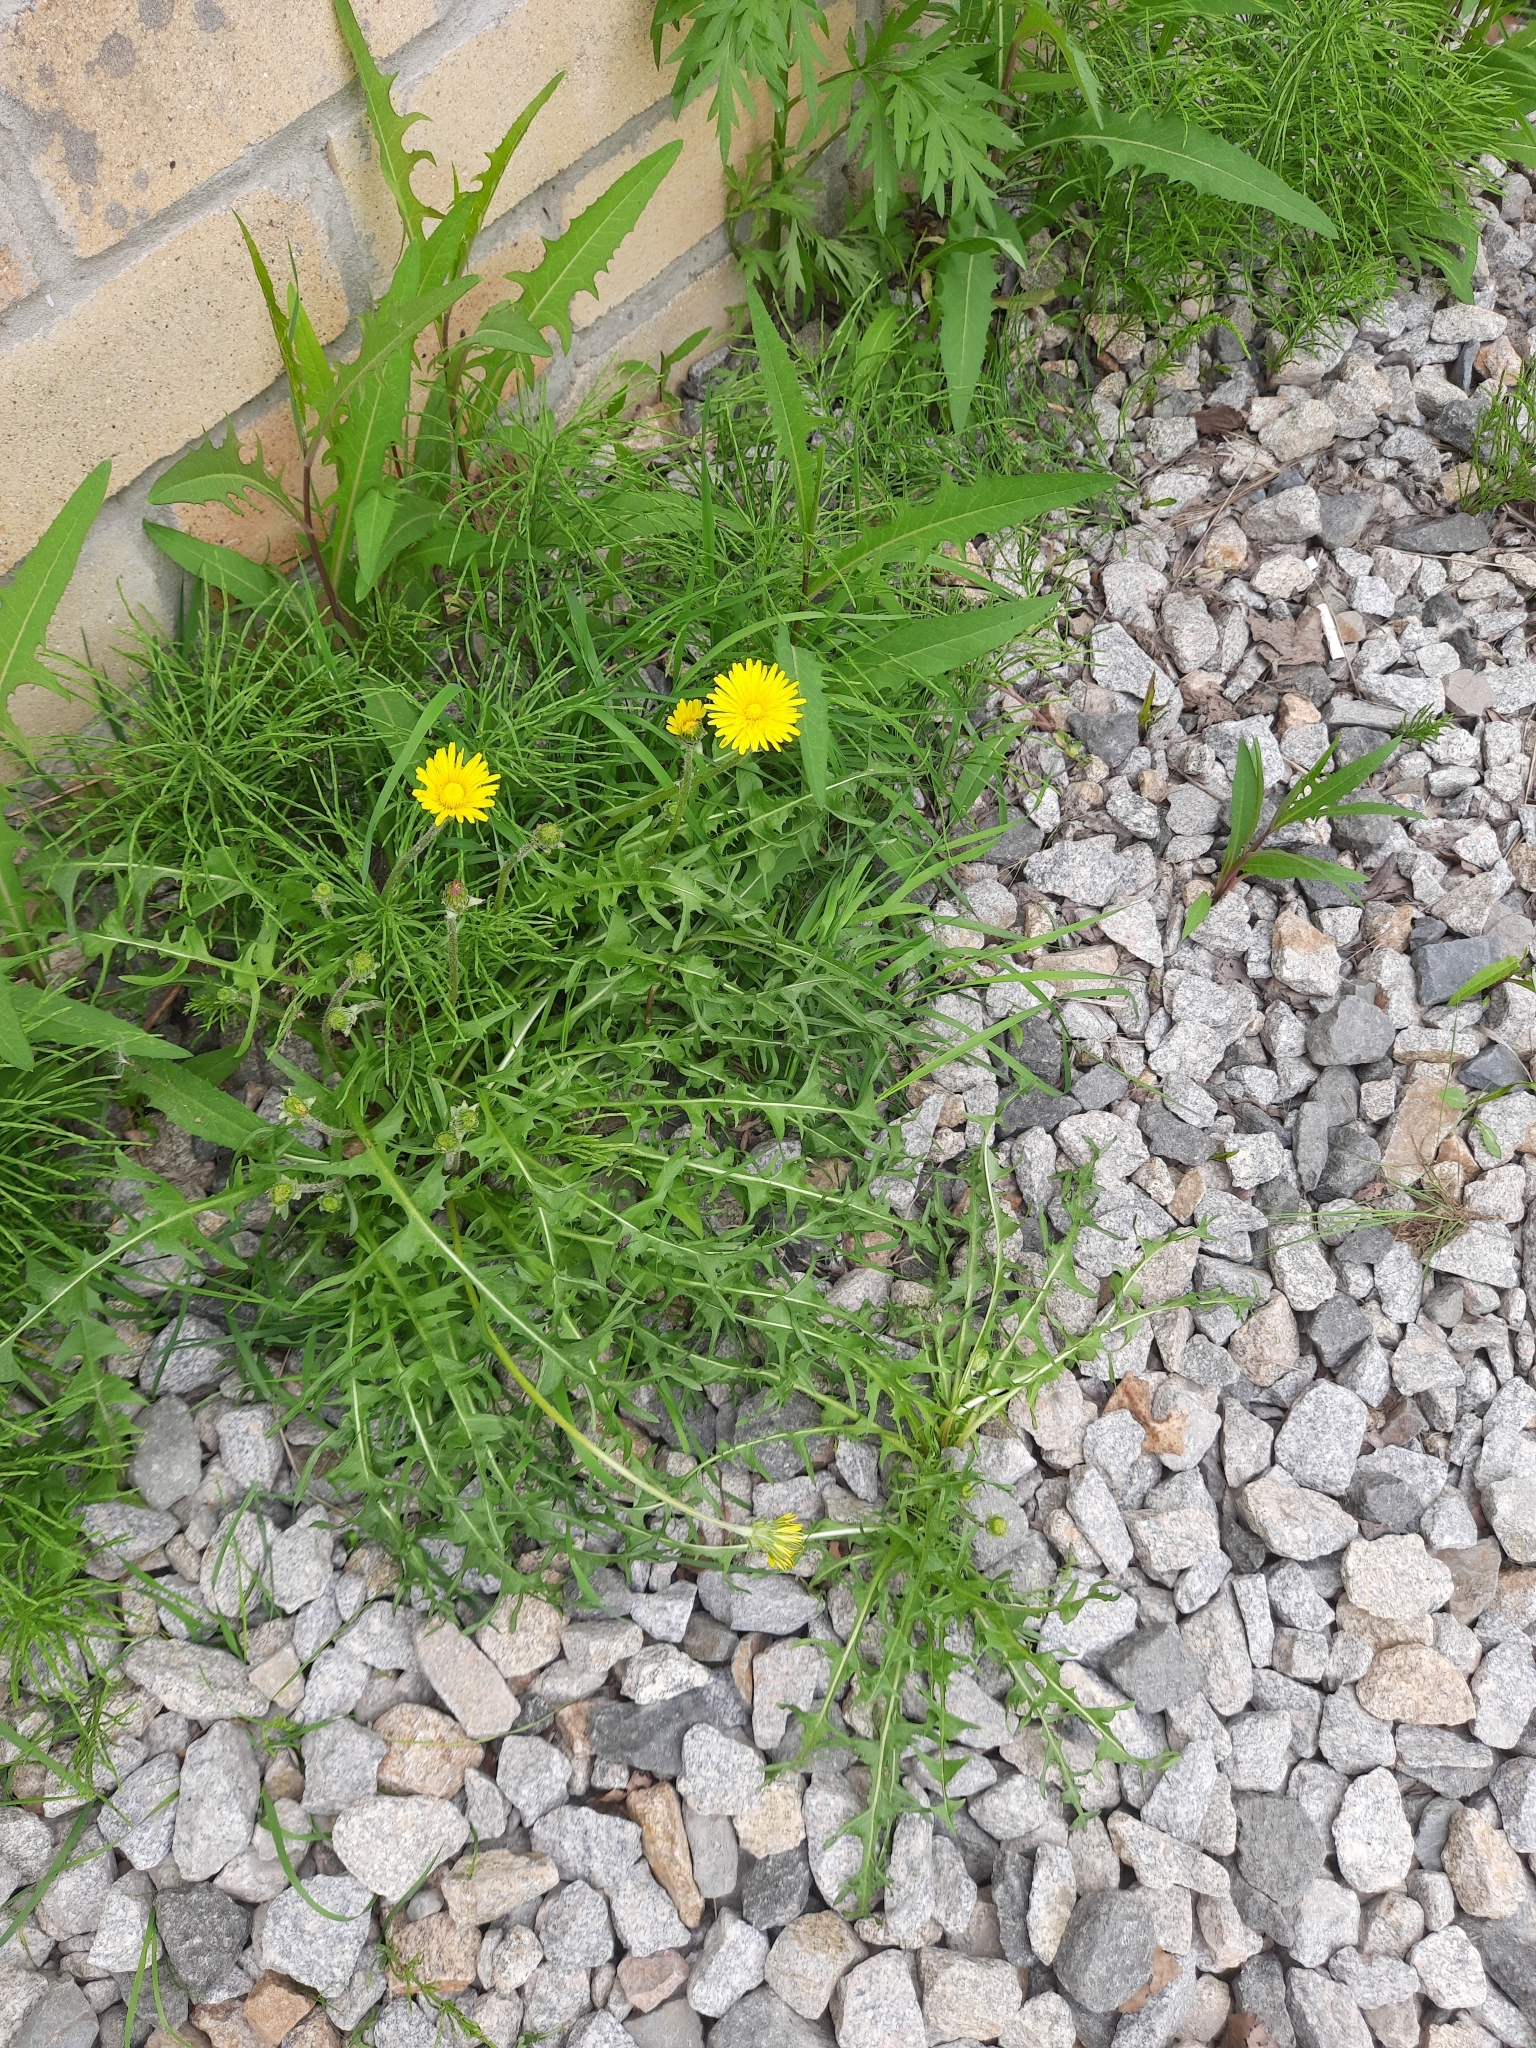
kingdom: Plantae
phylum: Tracheophyta
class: Magnoliopsida
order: Asterales
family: Asteraceae
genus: Taraxacum
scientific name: Taraxacum scariosum
